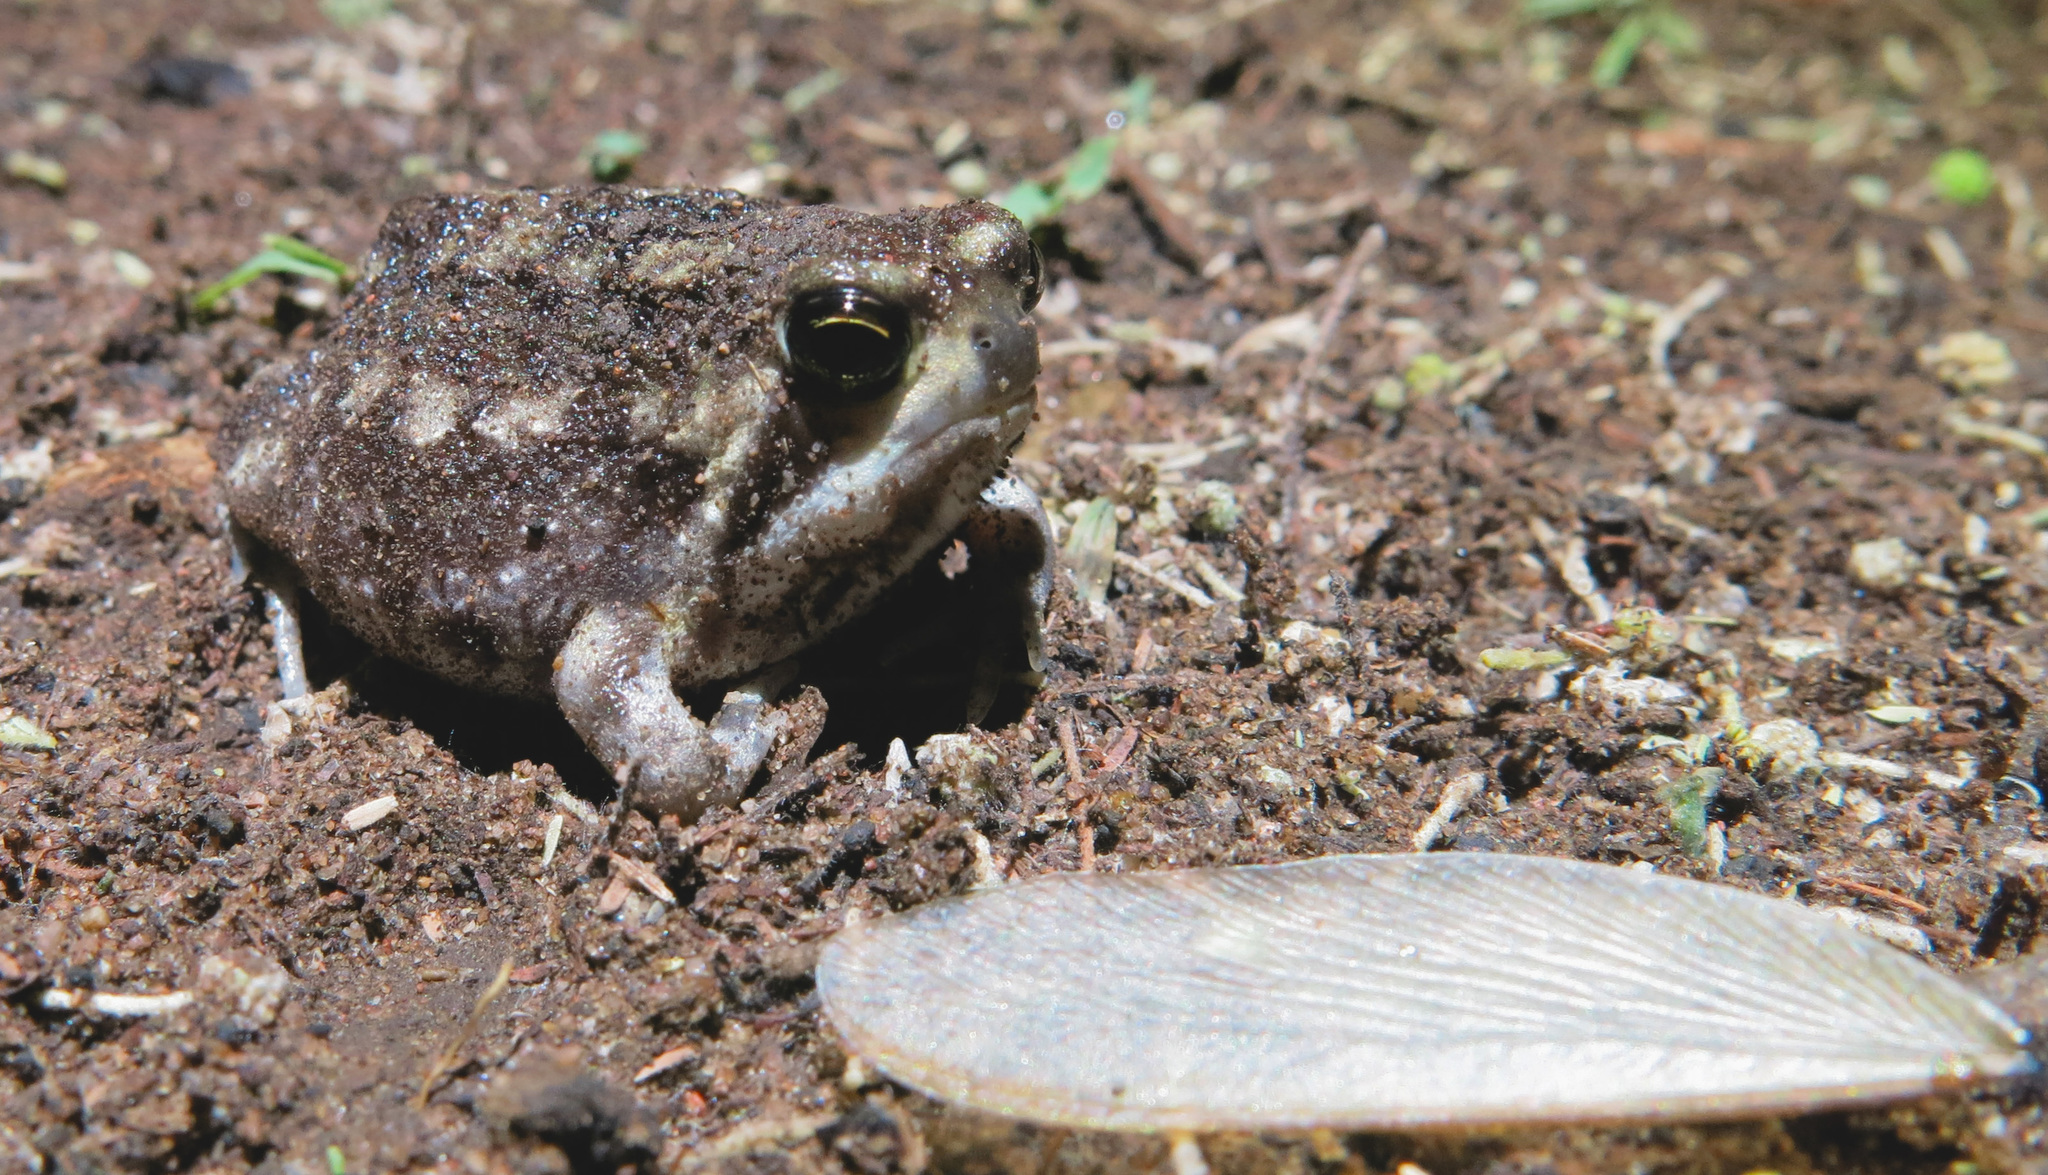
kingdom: Animalia
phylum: Chordata
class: Amphibia
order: Anura
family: Brevicipitidae
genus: Breviceps
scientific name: Breviceps adspersus
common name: Common rain frog
